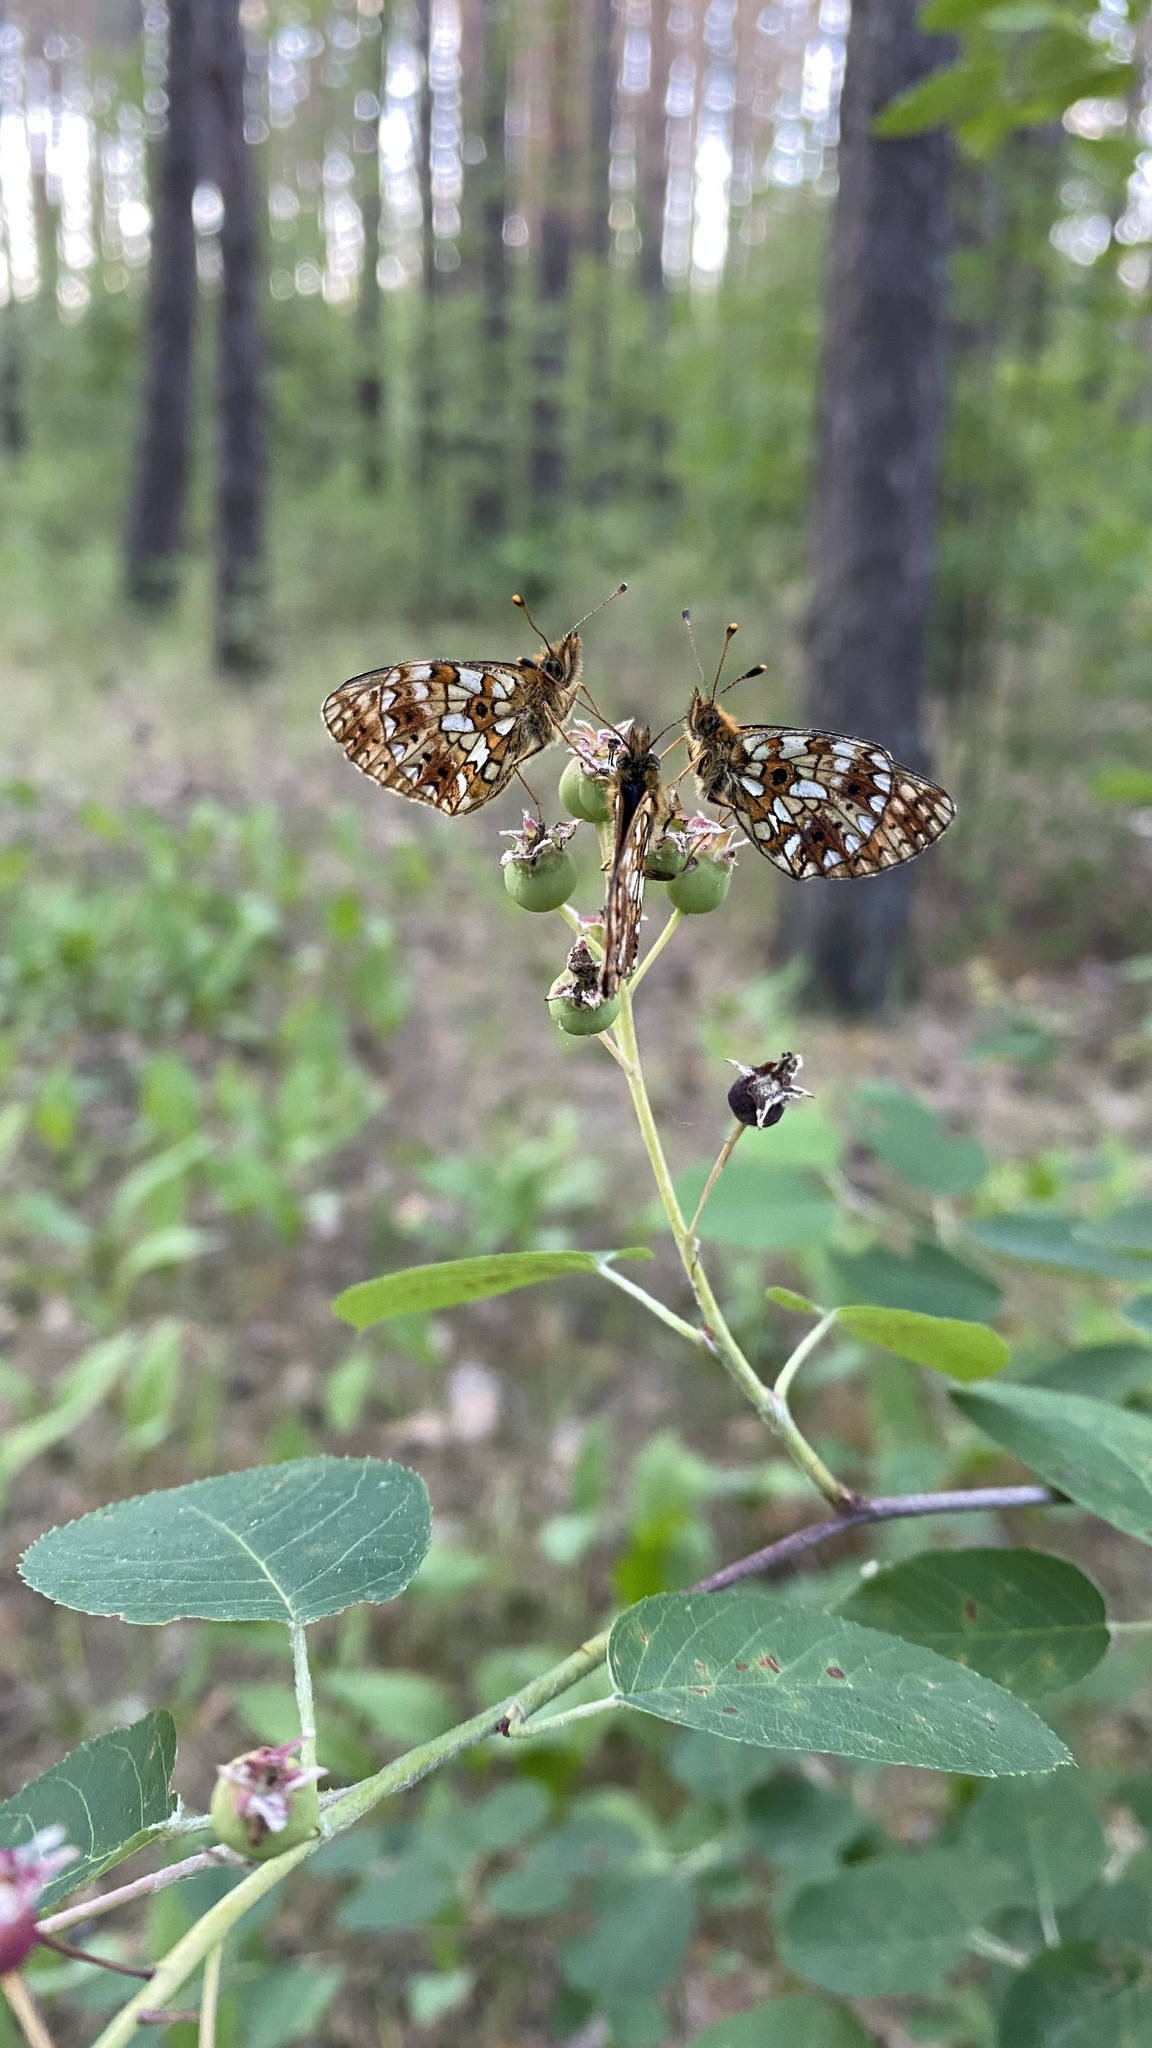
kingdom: Animalia
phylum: Arthropoda
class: Insecta
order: Lepidoptera
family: Nymphalidae
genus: Boloria
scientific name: Boloria selene
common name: Small pearl-bordered fritillary
